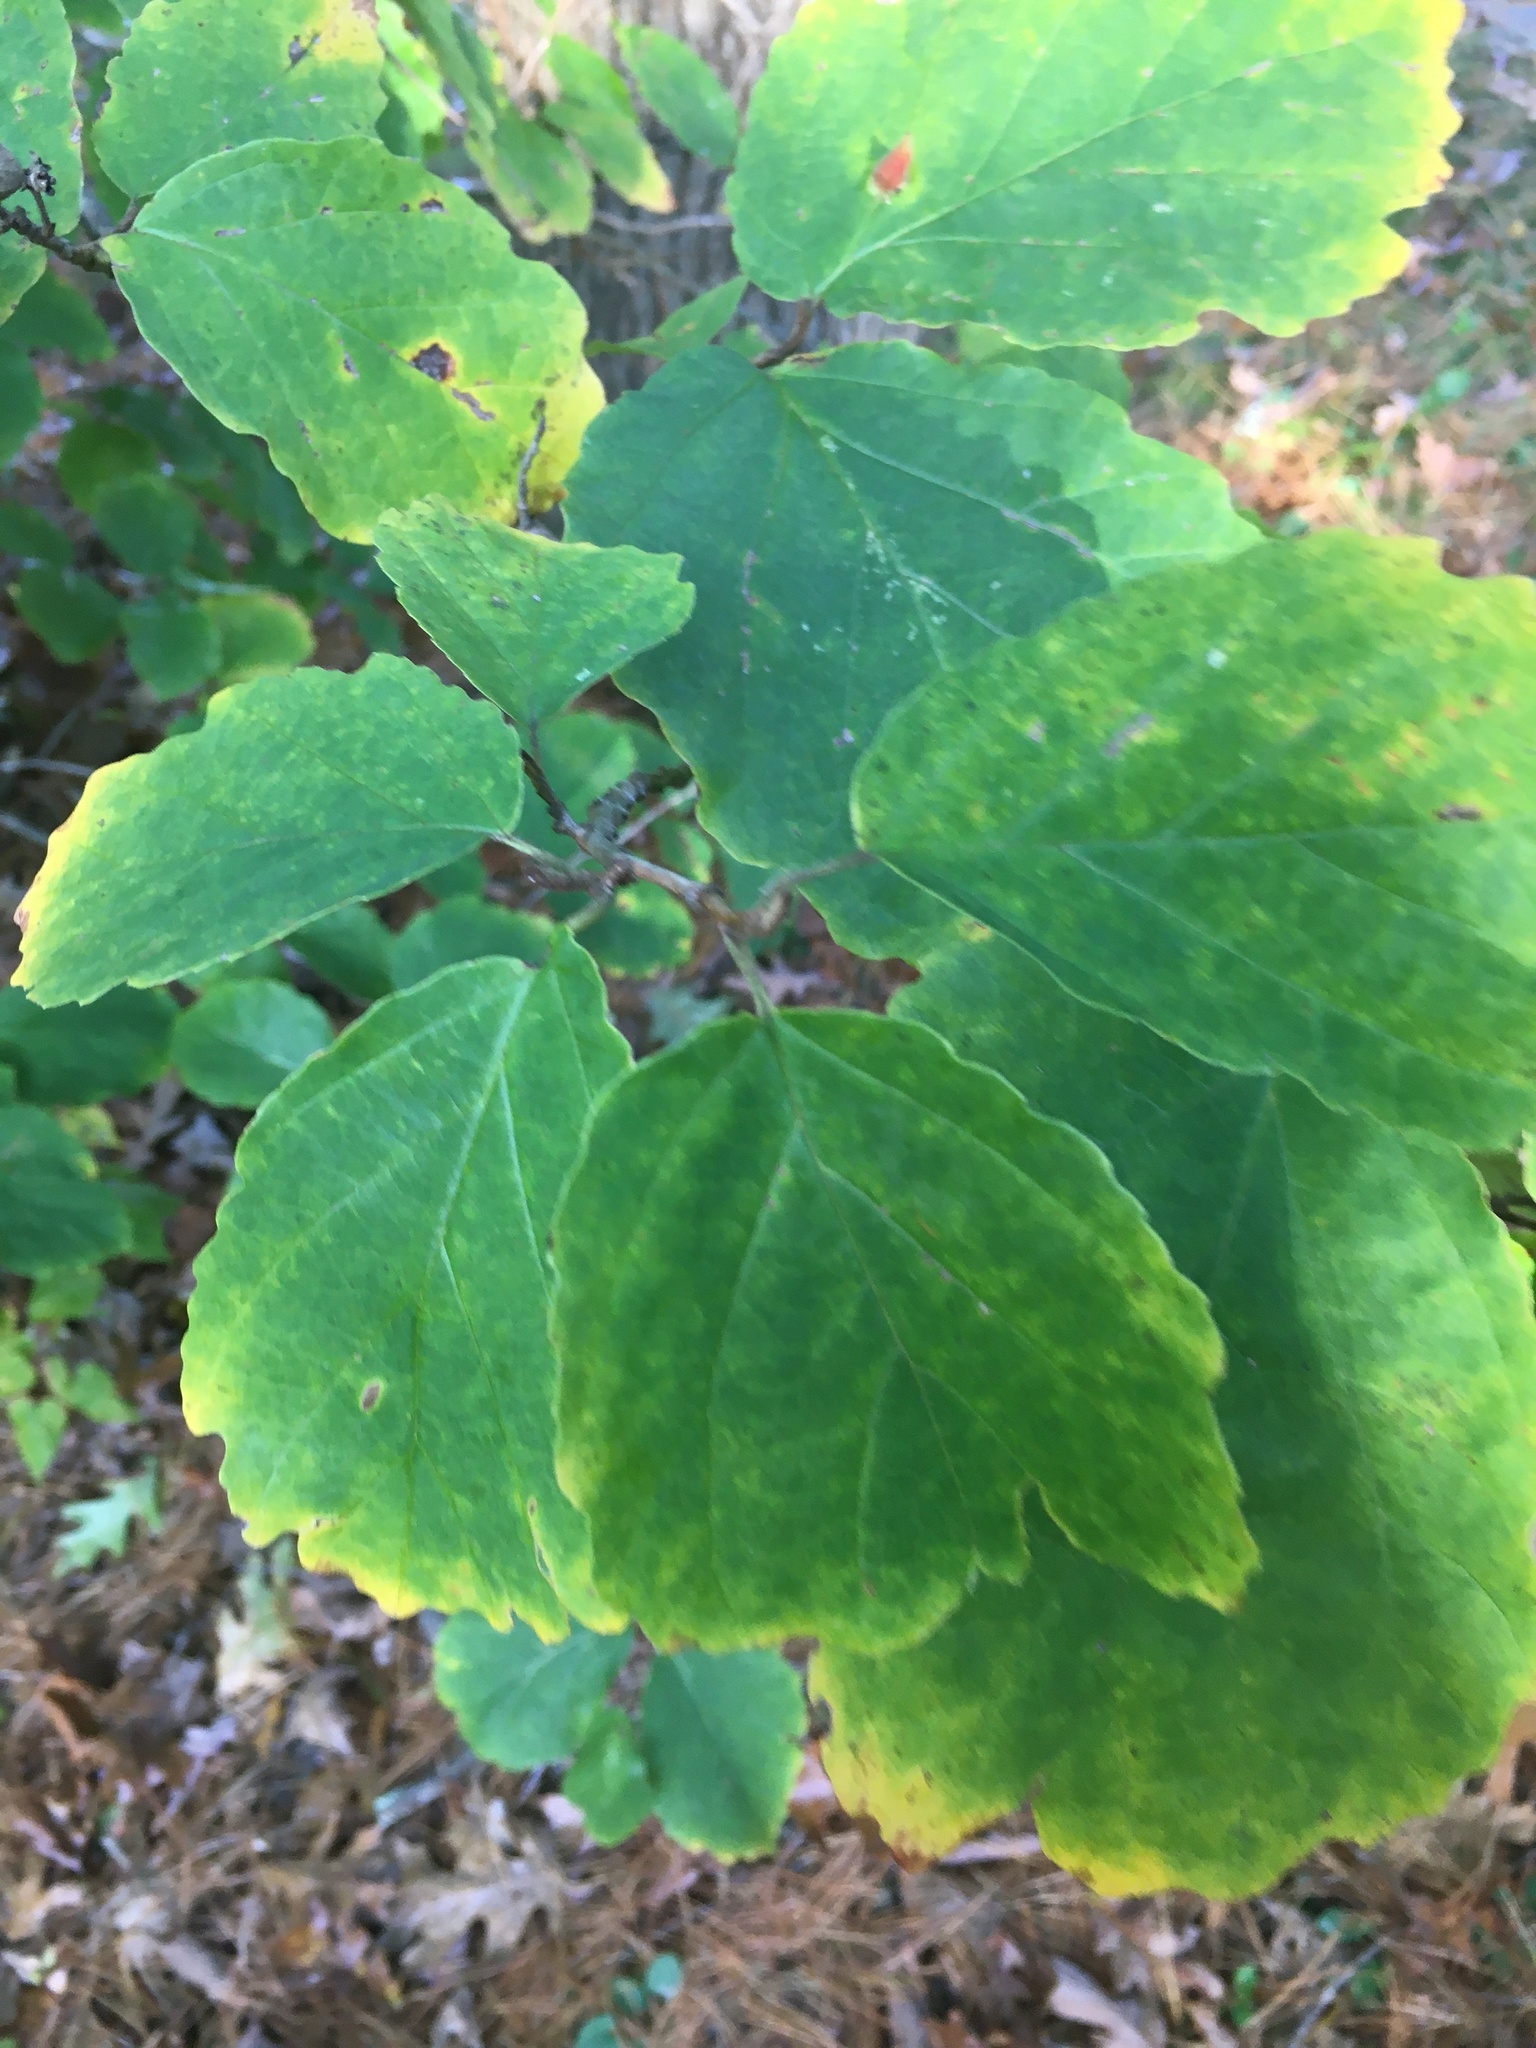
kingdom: Plantae
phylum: Tracheophyta
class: Magnoliopsida
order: Saxifragales
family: Hamamelidaceae
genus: Hamamelis
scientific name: Hamamelis virginiana
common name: Witch-hazel
